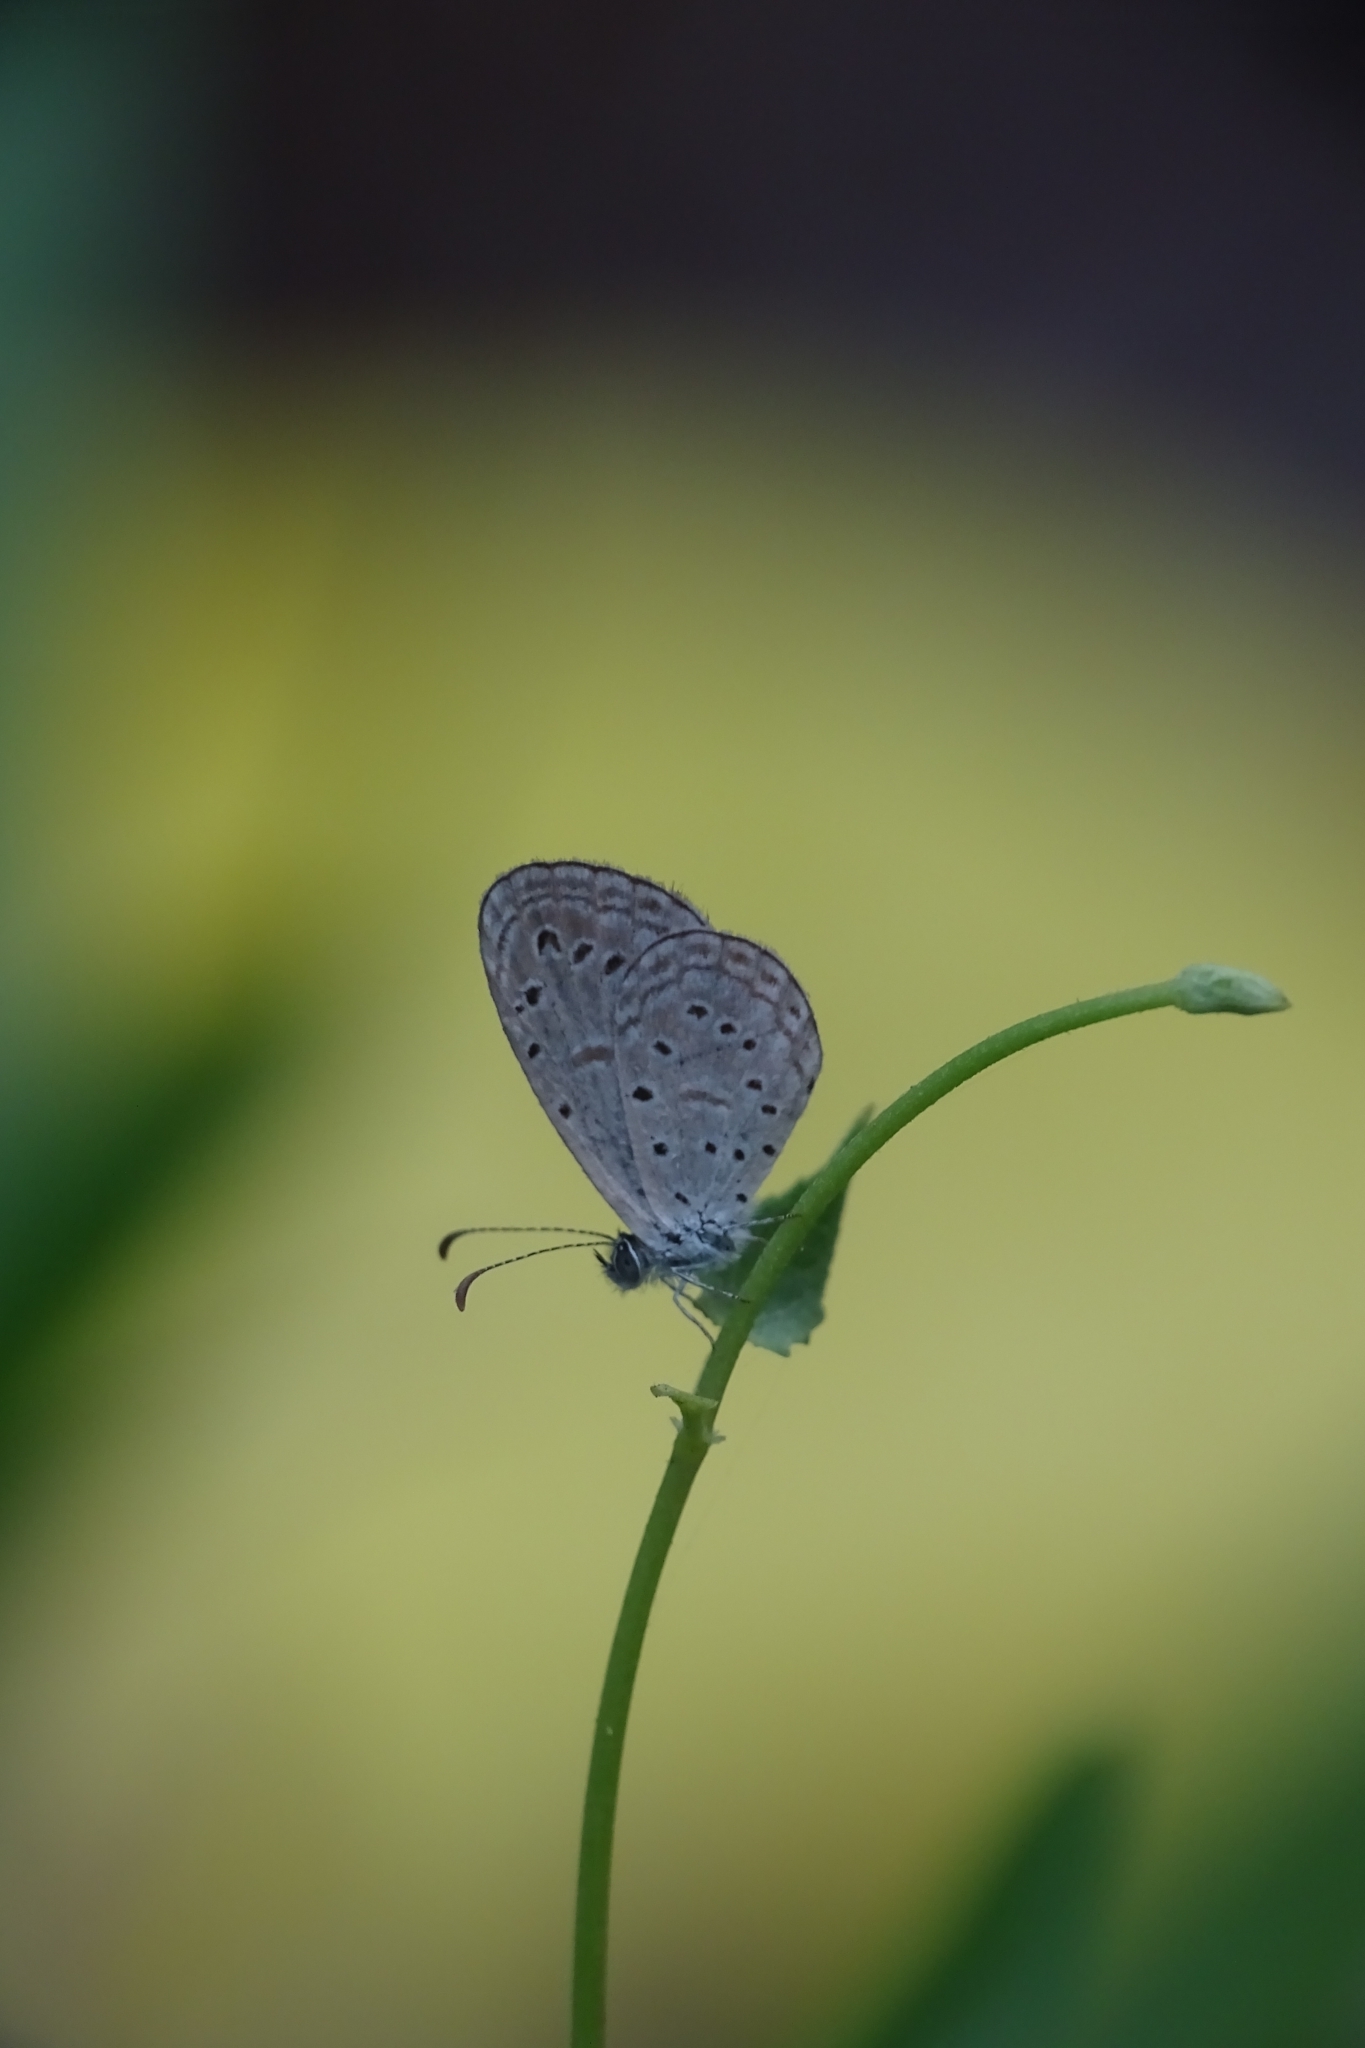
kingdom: Animalia
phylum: Arthropoda
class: Insecta
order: Lepidoptera
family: Lycaenidae
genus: Zizula
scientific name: Zizula hylax
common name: Gaika blue
